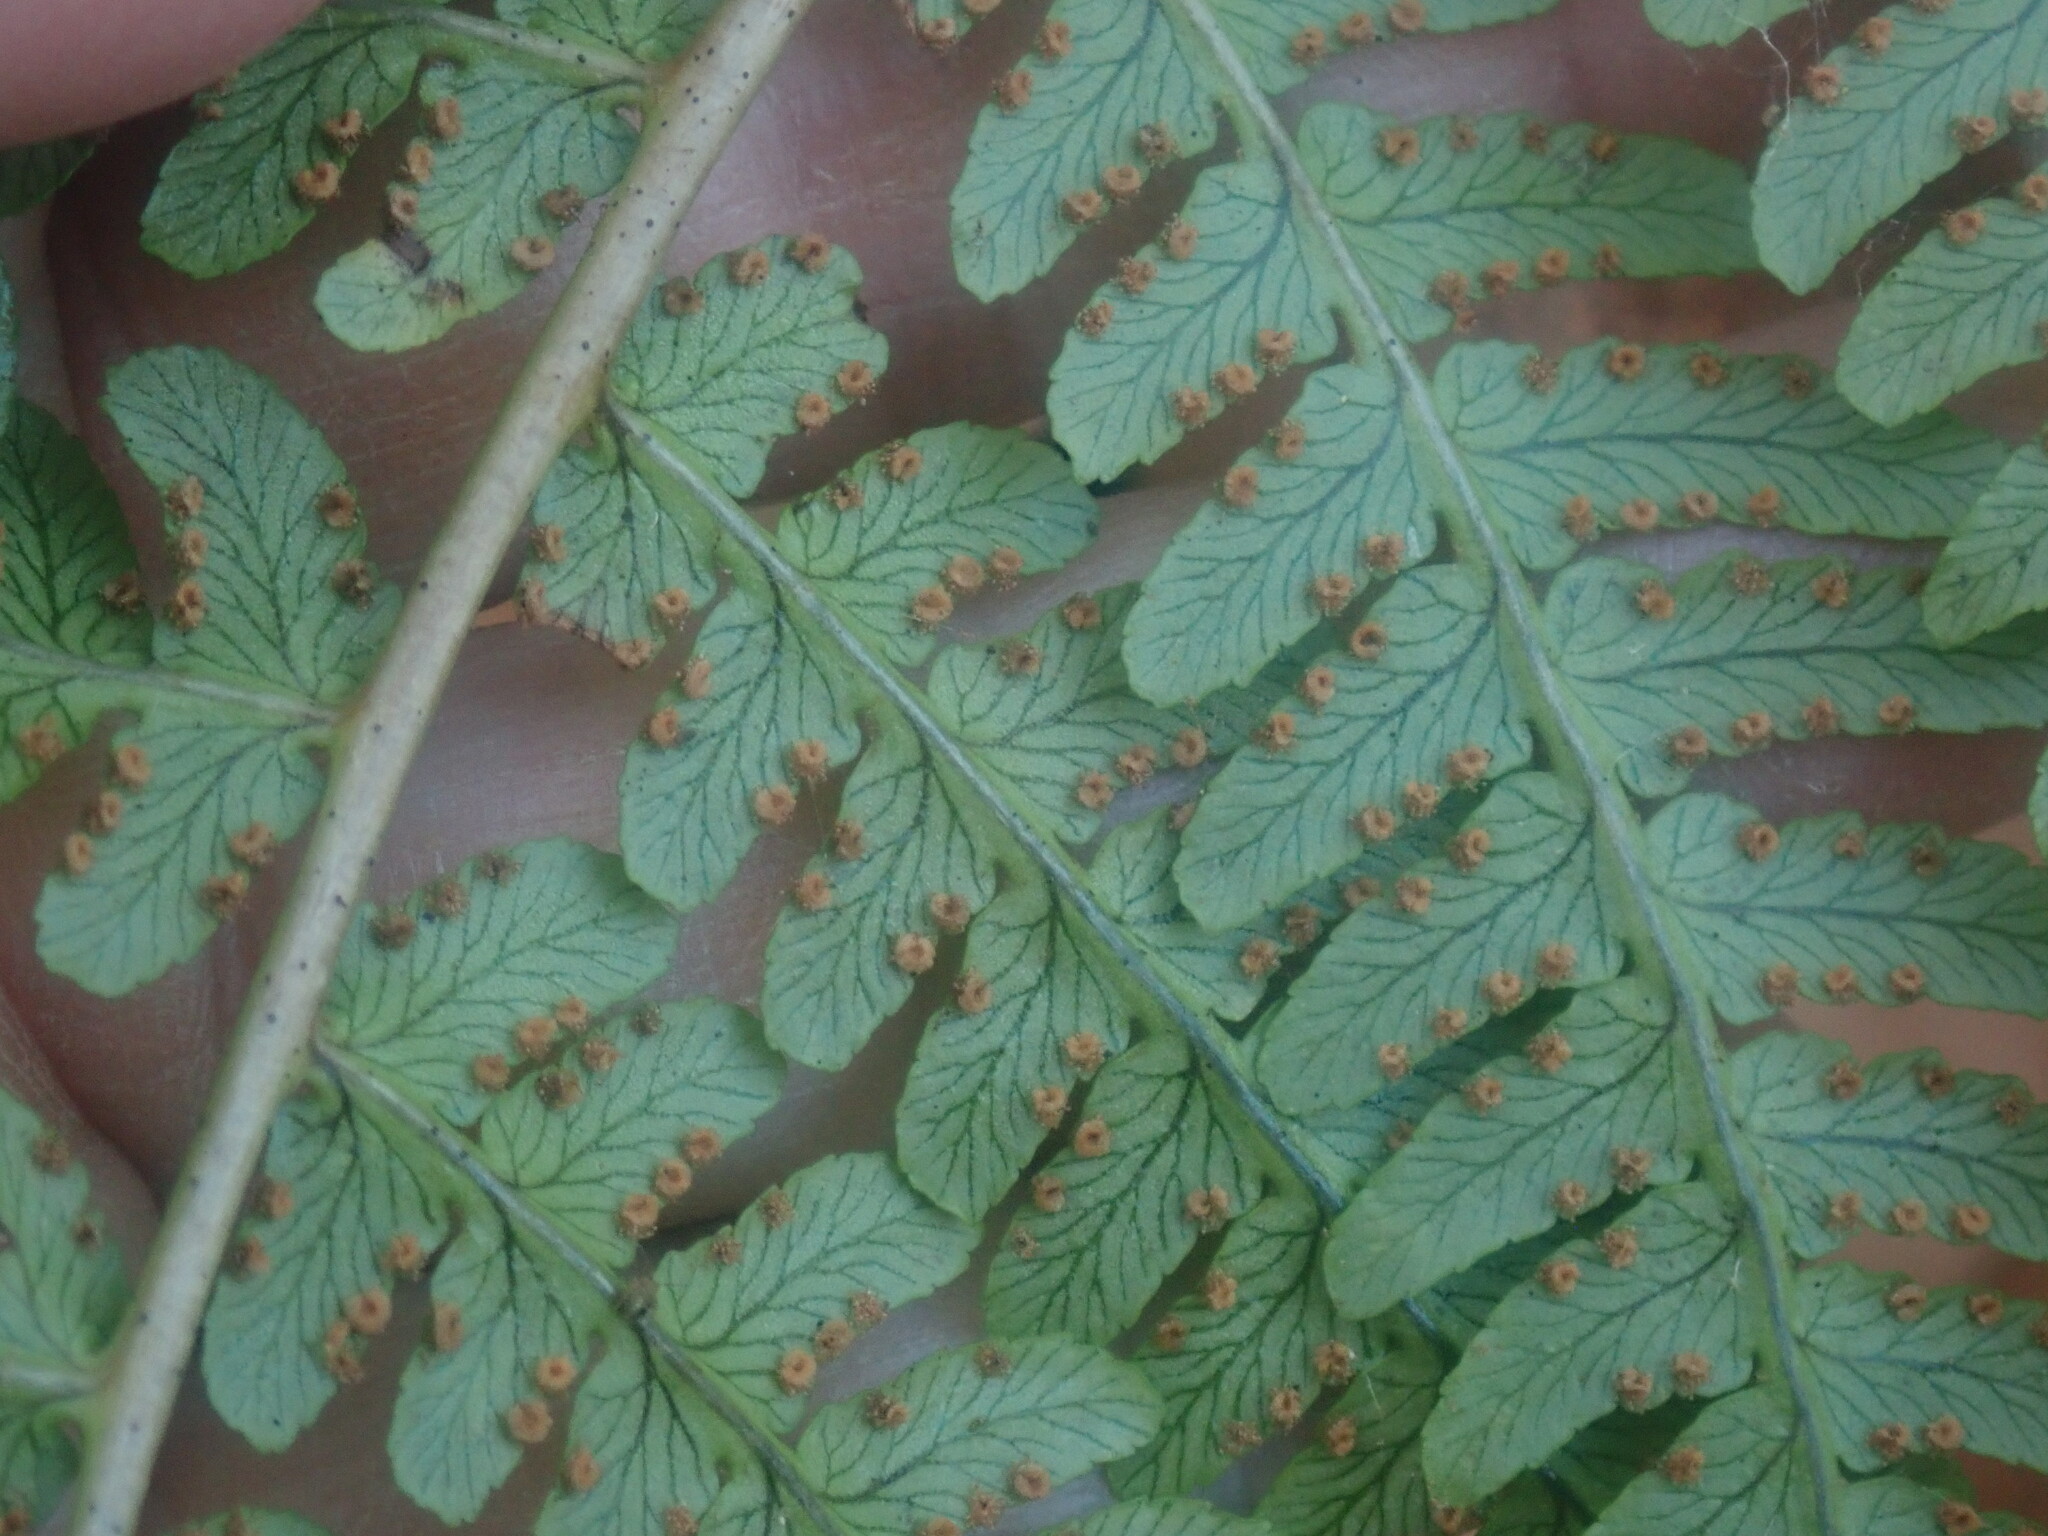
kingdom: Plantae
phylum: Tracheophyta
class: Polypodiopsida
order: Polypodiales
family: Dryopteridaceae
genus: Dryopteris
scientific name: Dryopteris marginalis
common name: Marginal wood fern
